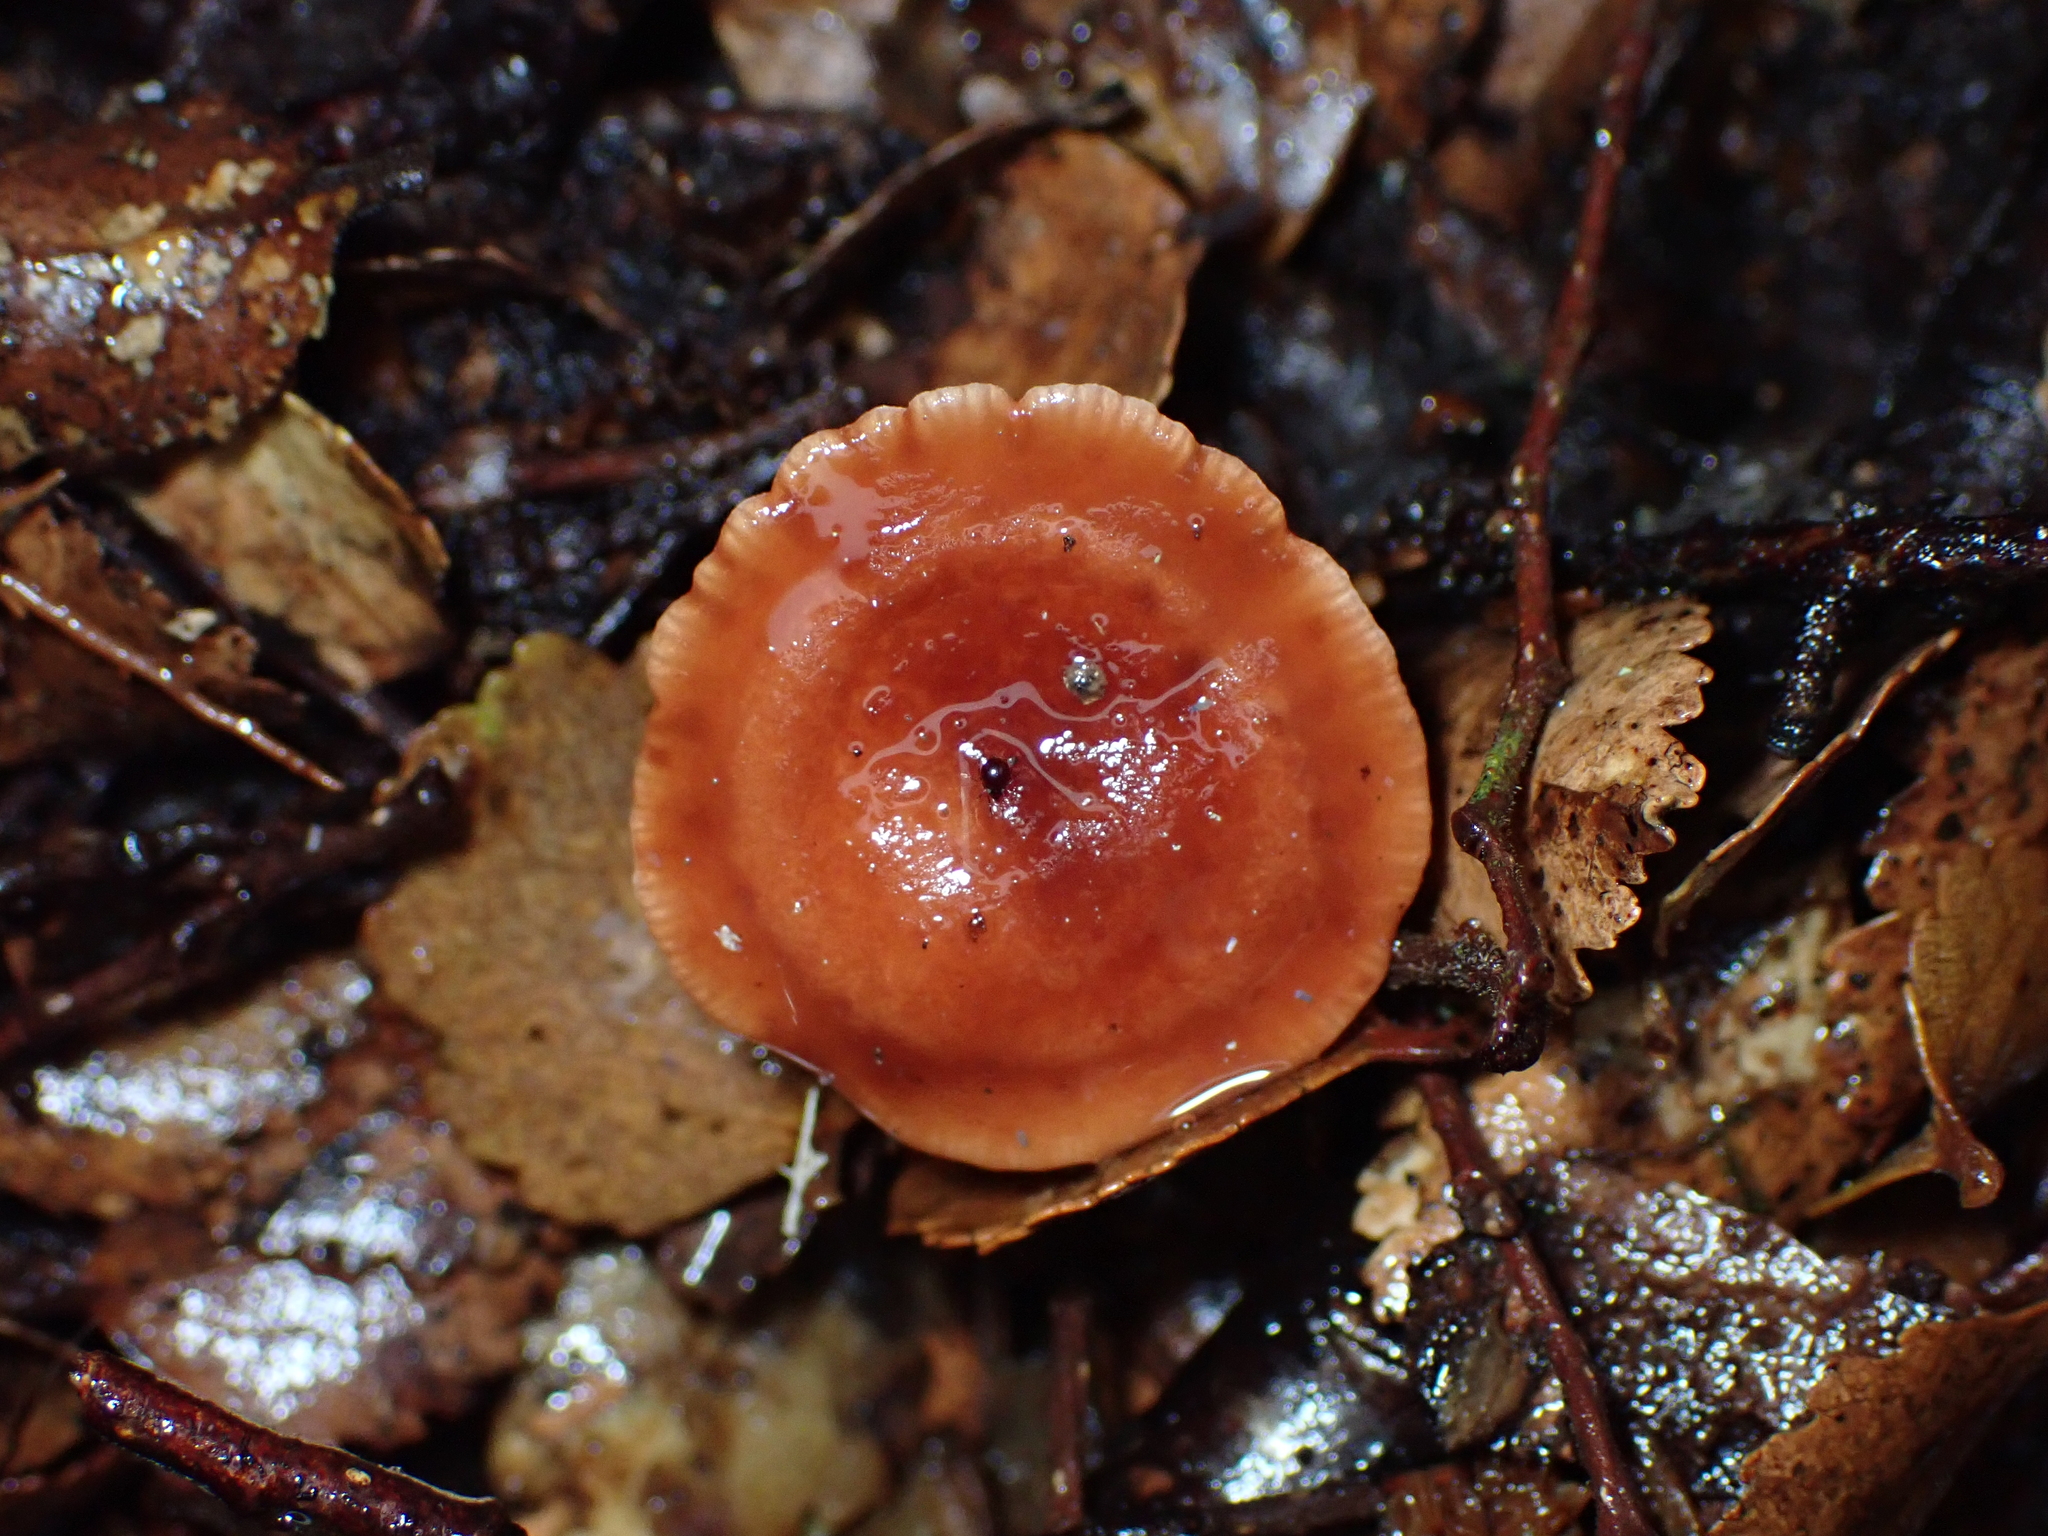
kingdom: Fungi
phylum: Basidiomycota
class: Agaricomycetes
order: Russulales
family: Russulaceae
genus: Lactarius
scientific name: Lactarius
